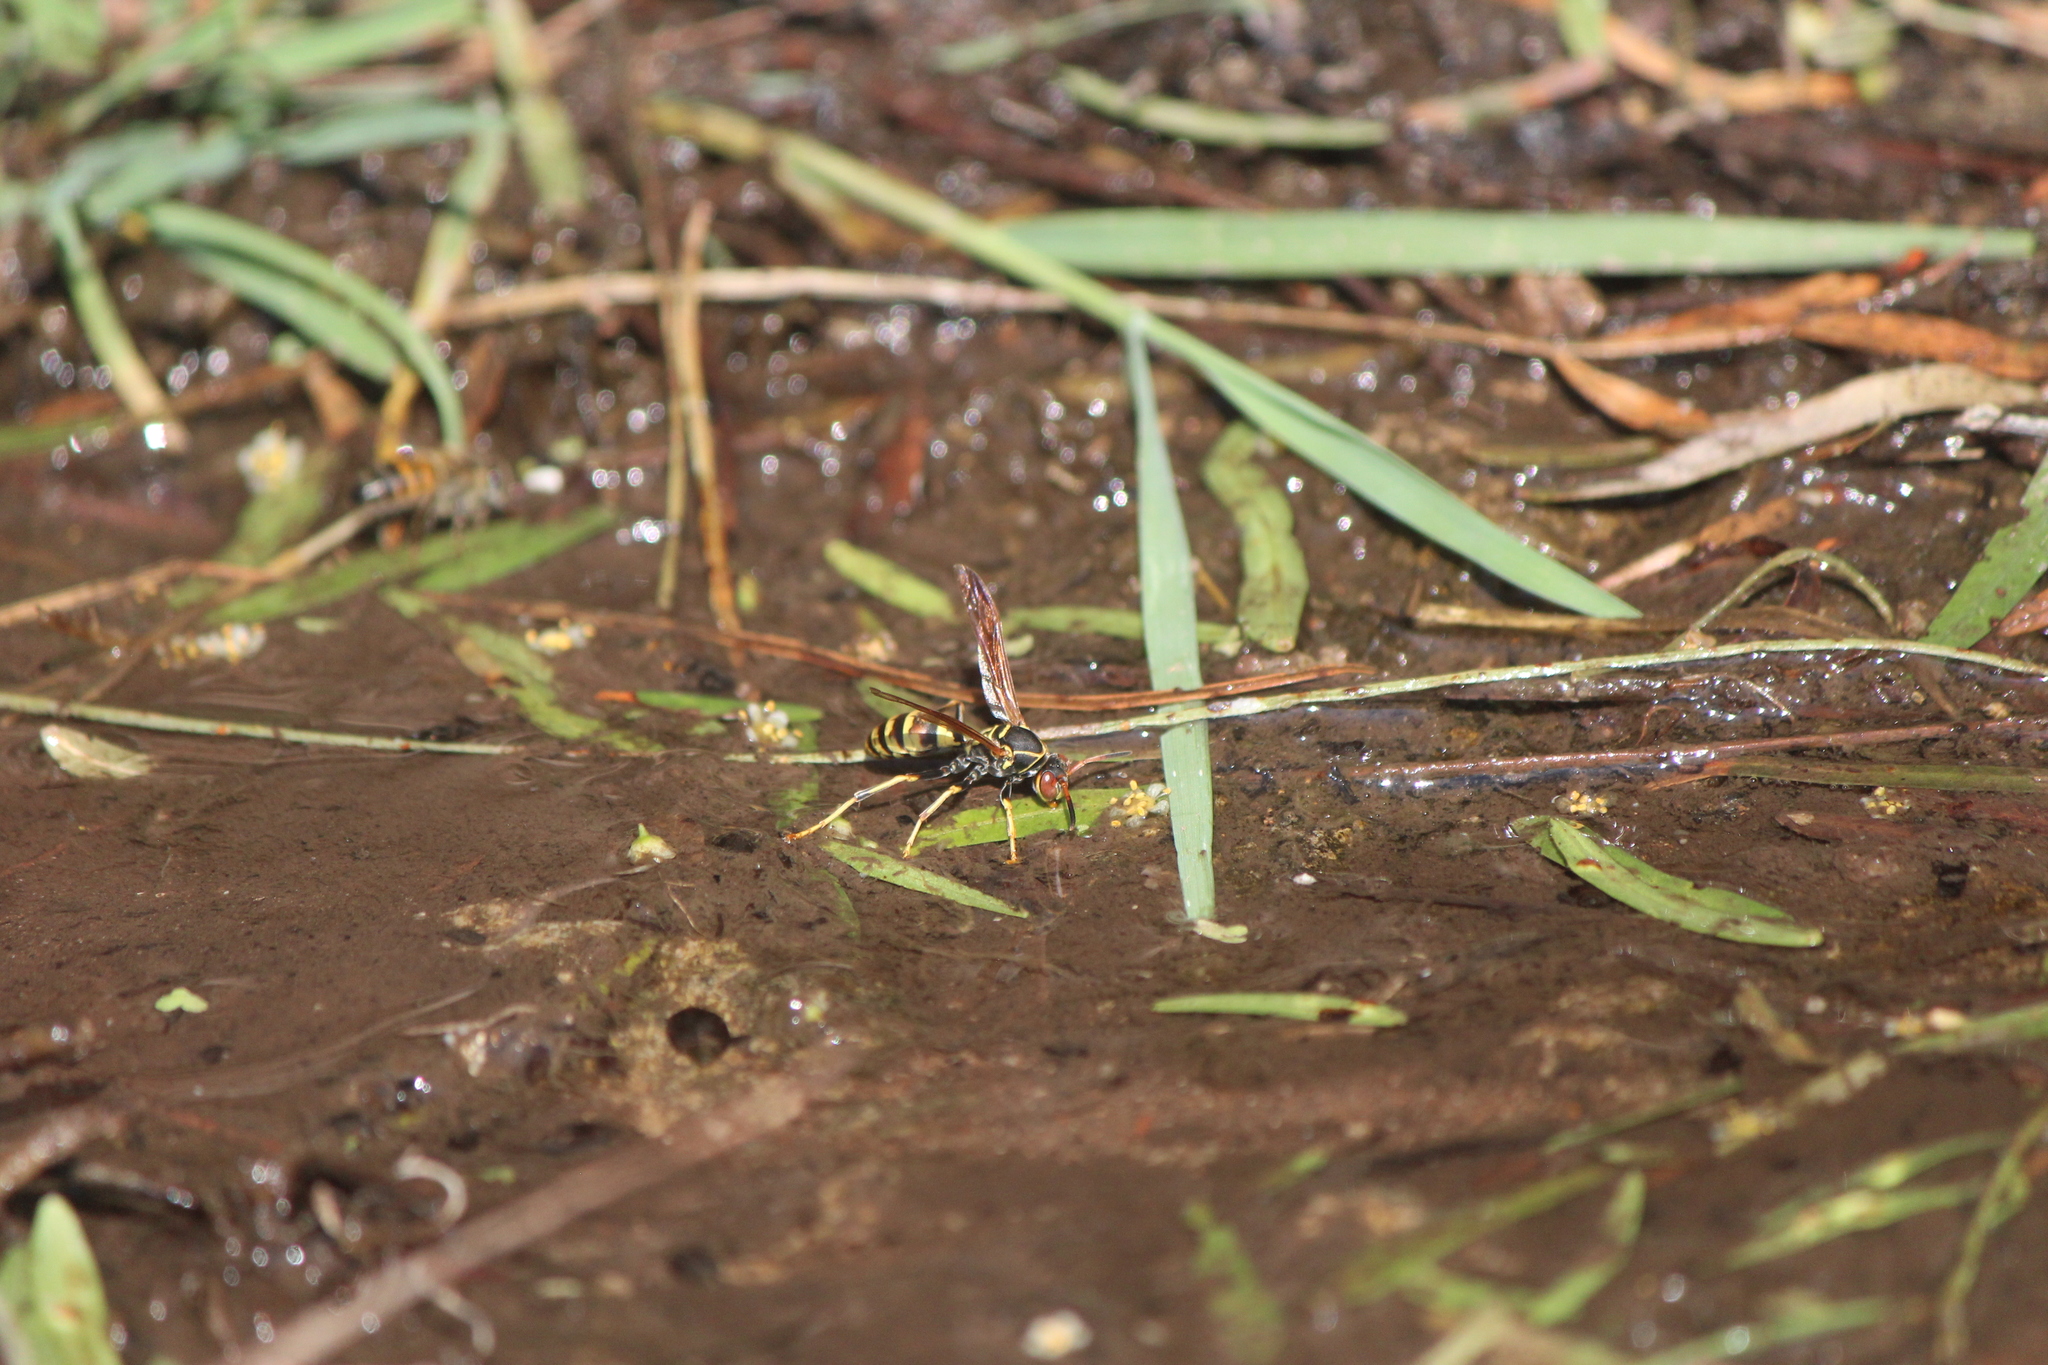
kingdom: Animalia
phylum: Arthropoda
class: Insecta
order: Hymenoptera
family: Eumenidae
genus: Polistes
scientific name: Polistes dorsalis
